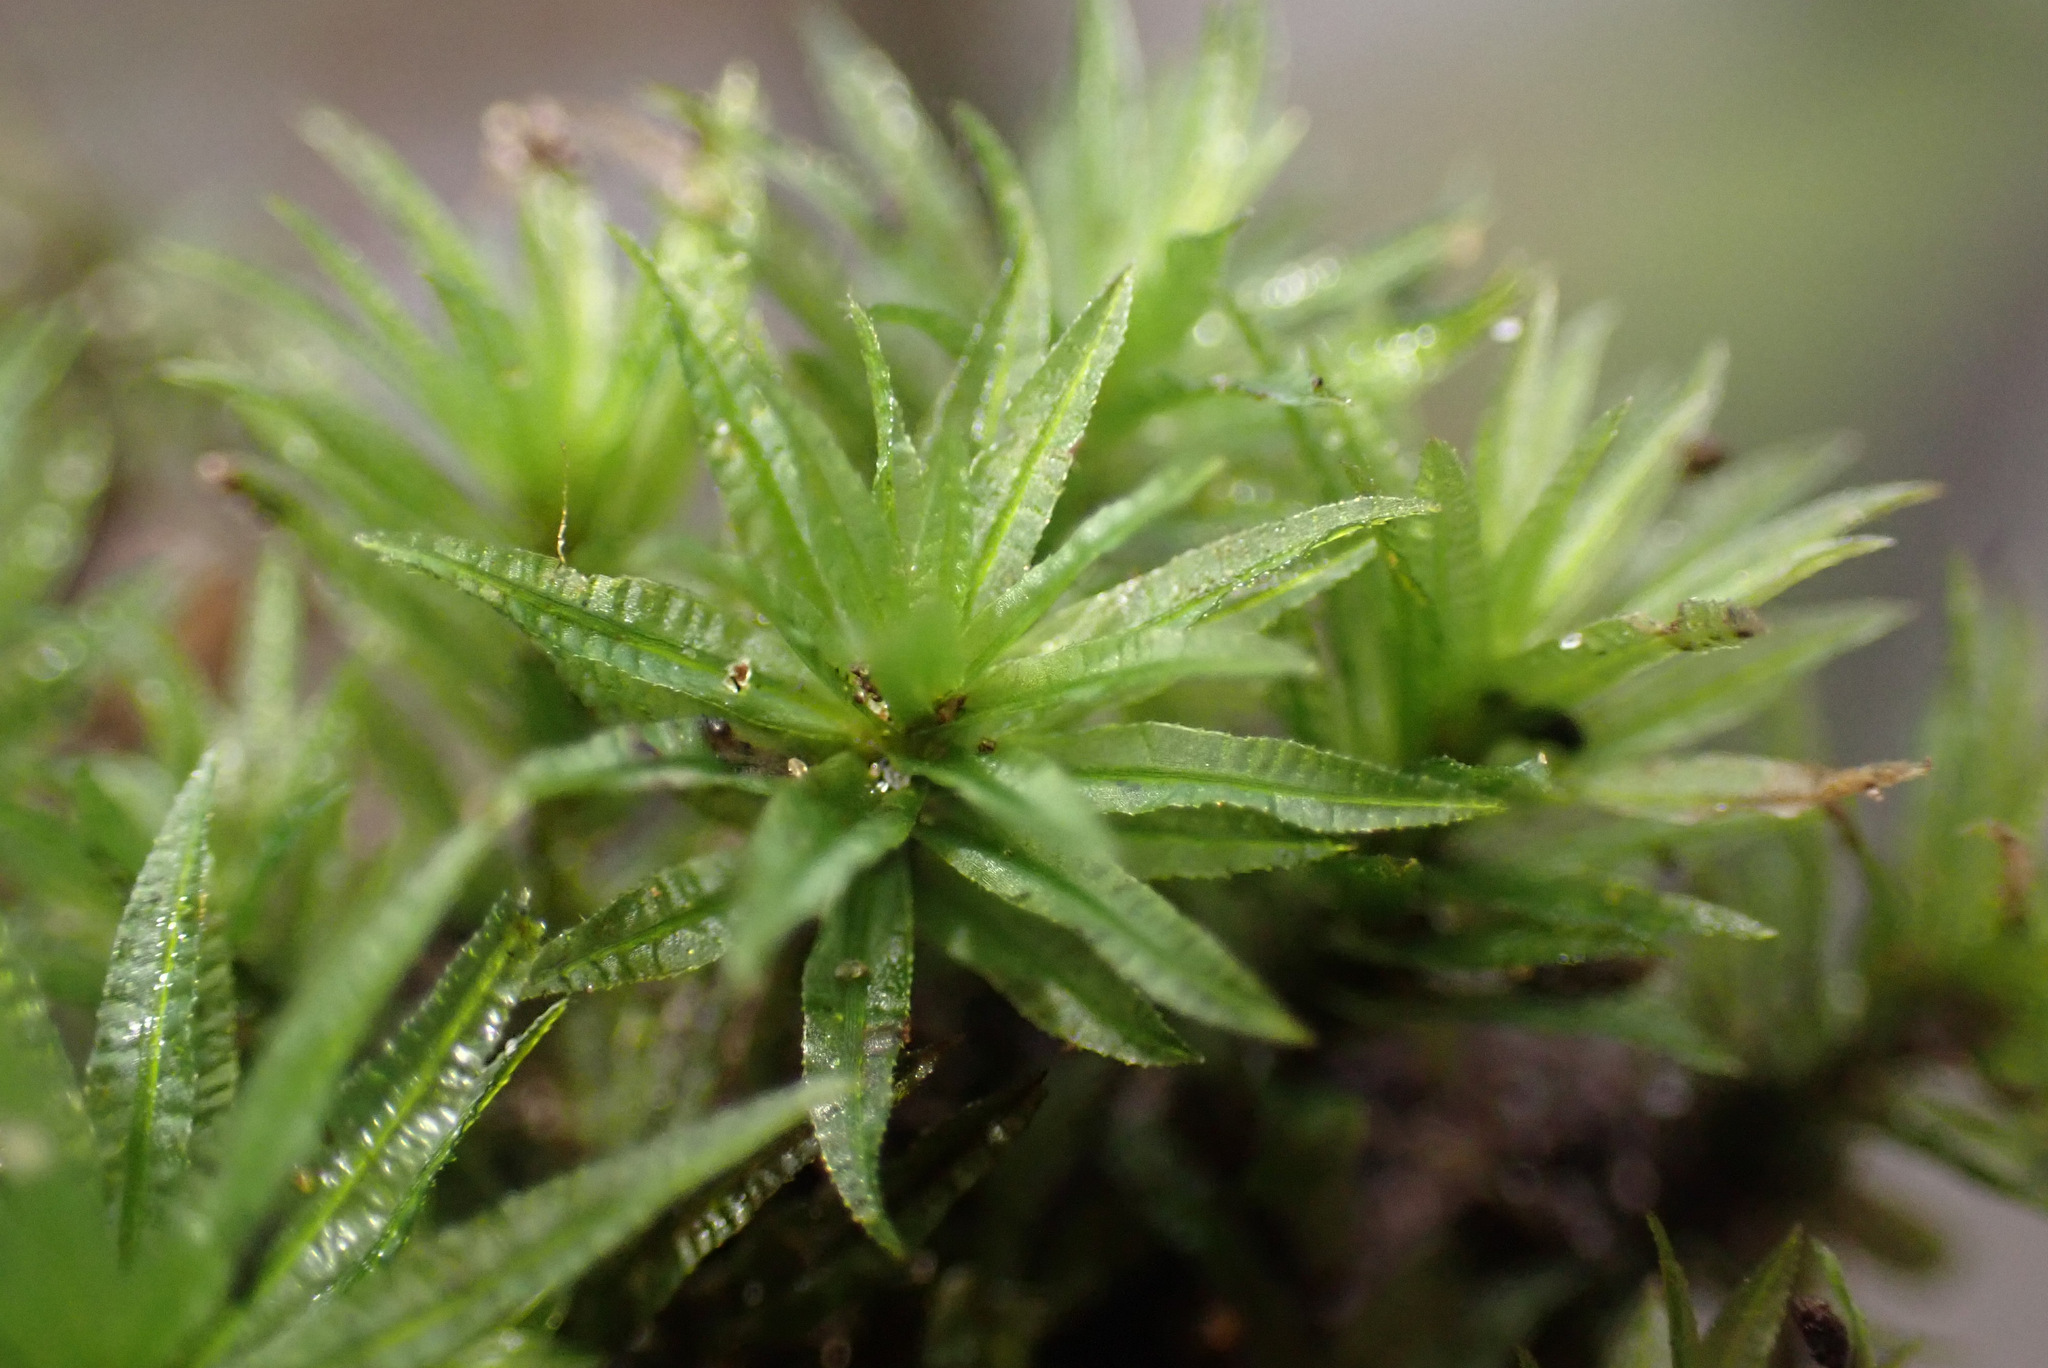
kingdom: Plantae
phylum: Bryophyta
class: Polytrichopsida
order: Polytrichales
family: Polytrichaceae
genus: Atrichum
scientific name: Atrichum undulatum
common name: Common smoothcap
